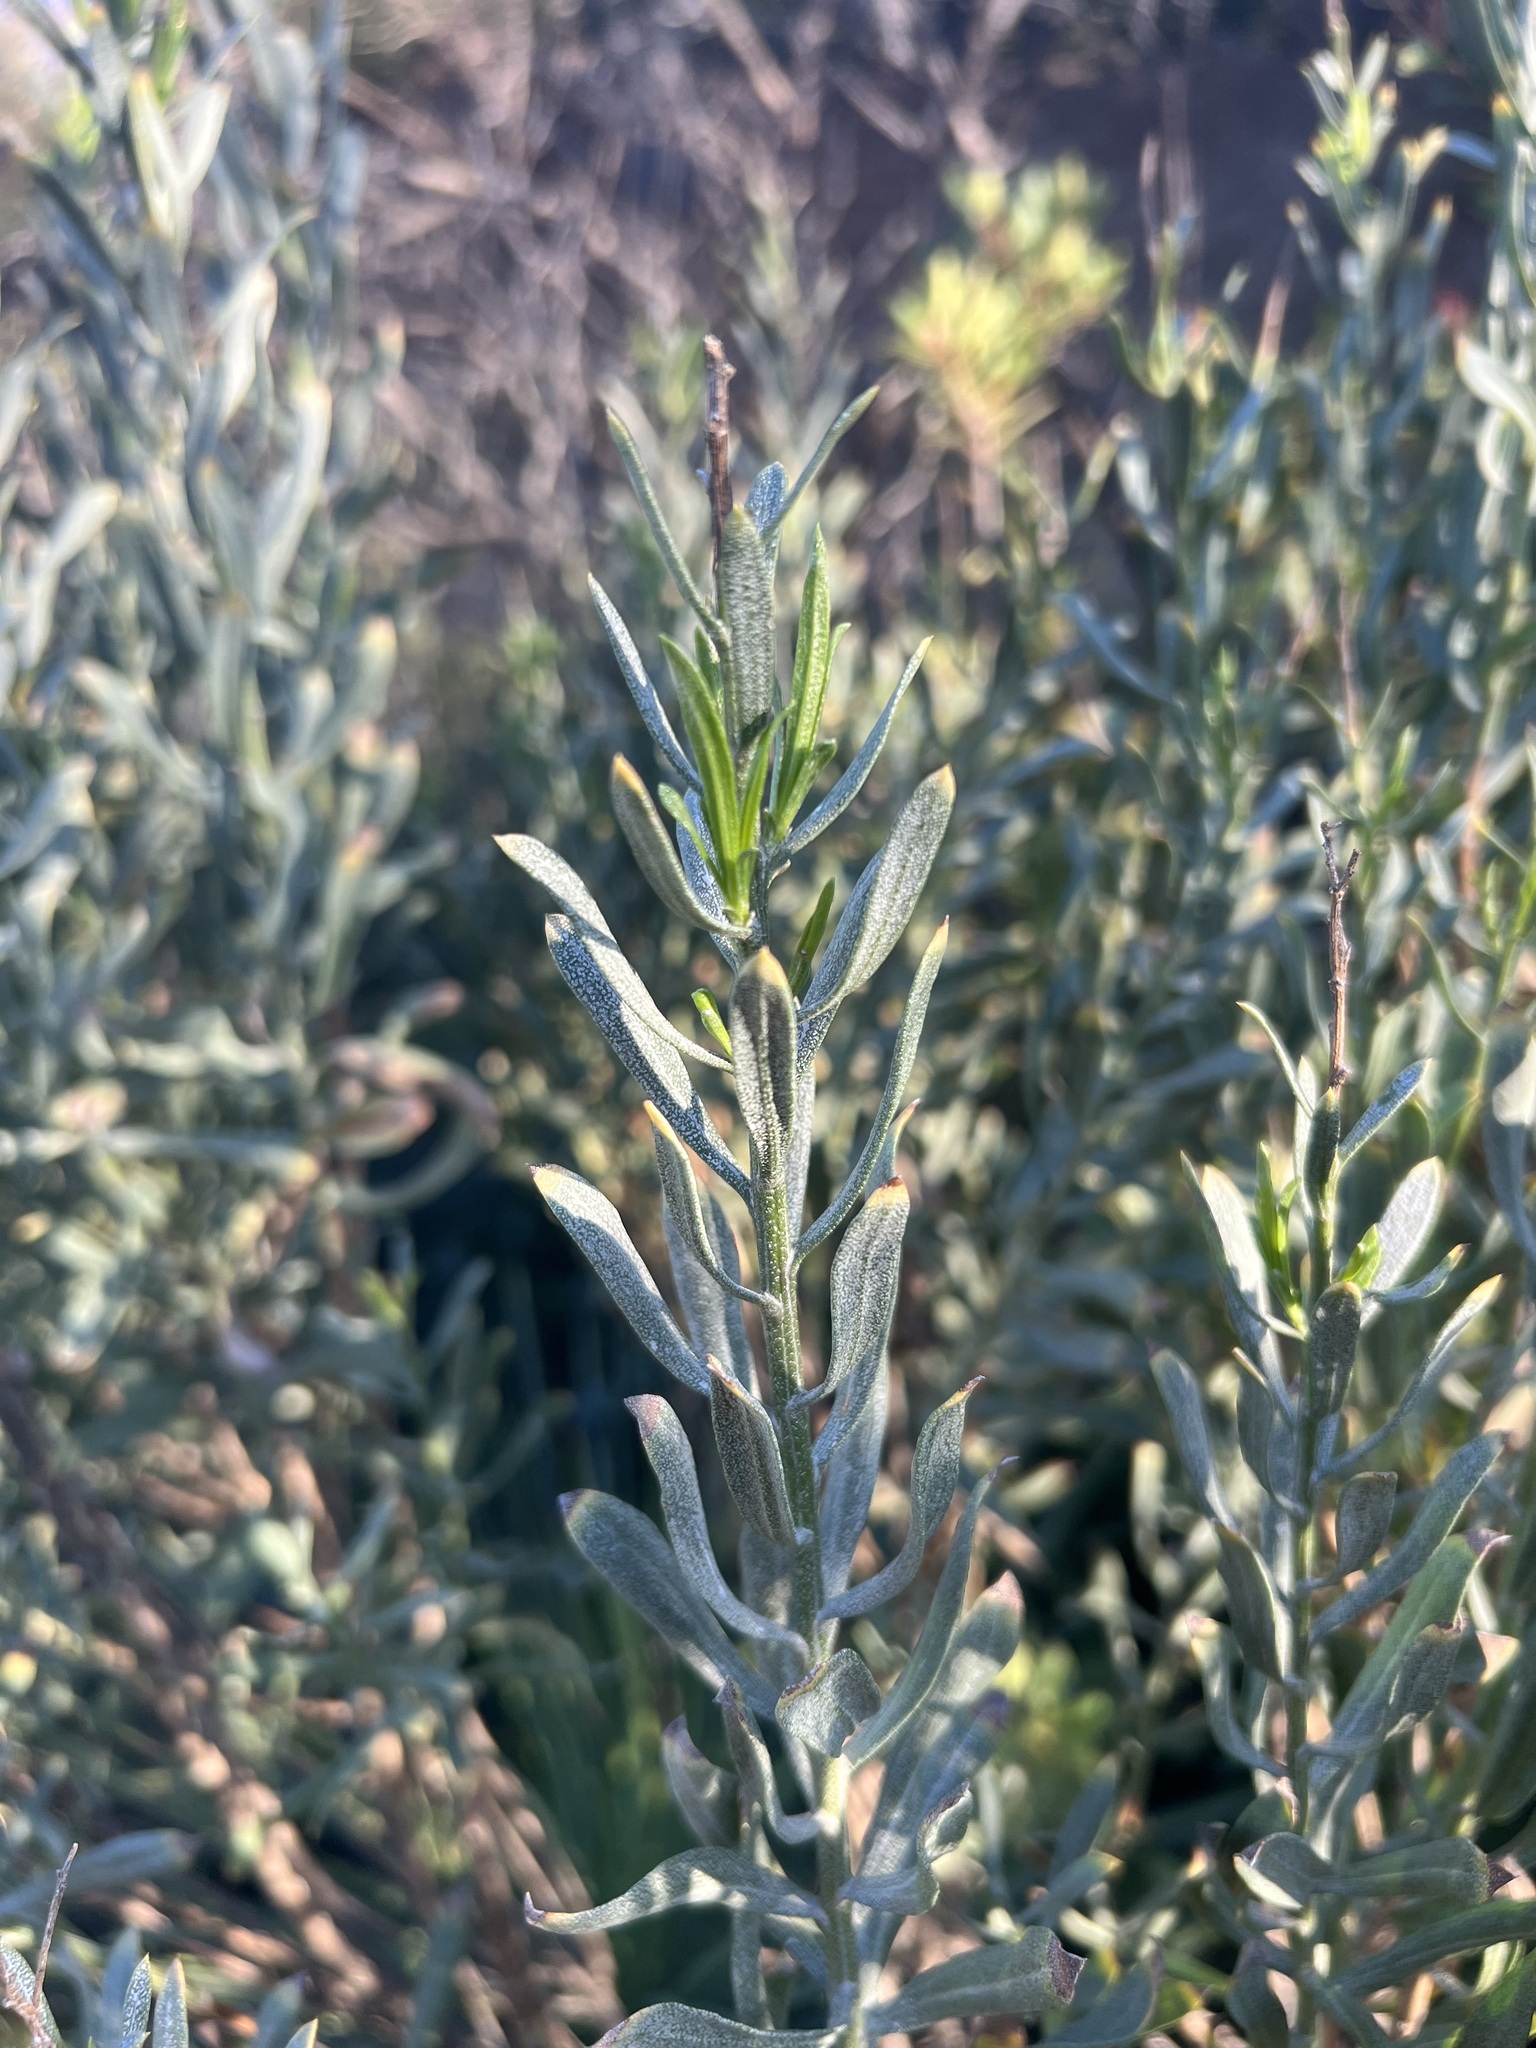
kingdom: Plantae
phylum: Tracheophyta
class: Magnoliopsida
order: Asterales
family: Asteraceae
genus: Ericameria
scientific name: Ericameria parishii
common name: Parish's goldenbush
